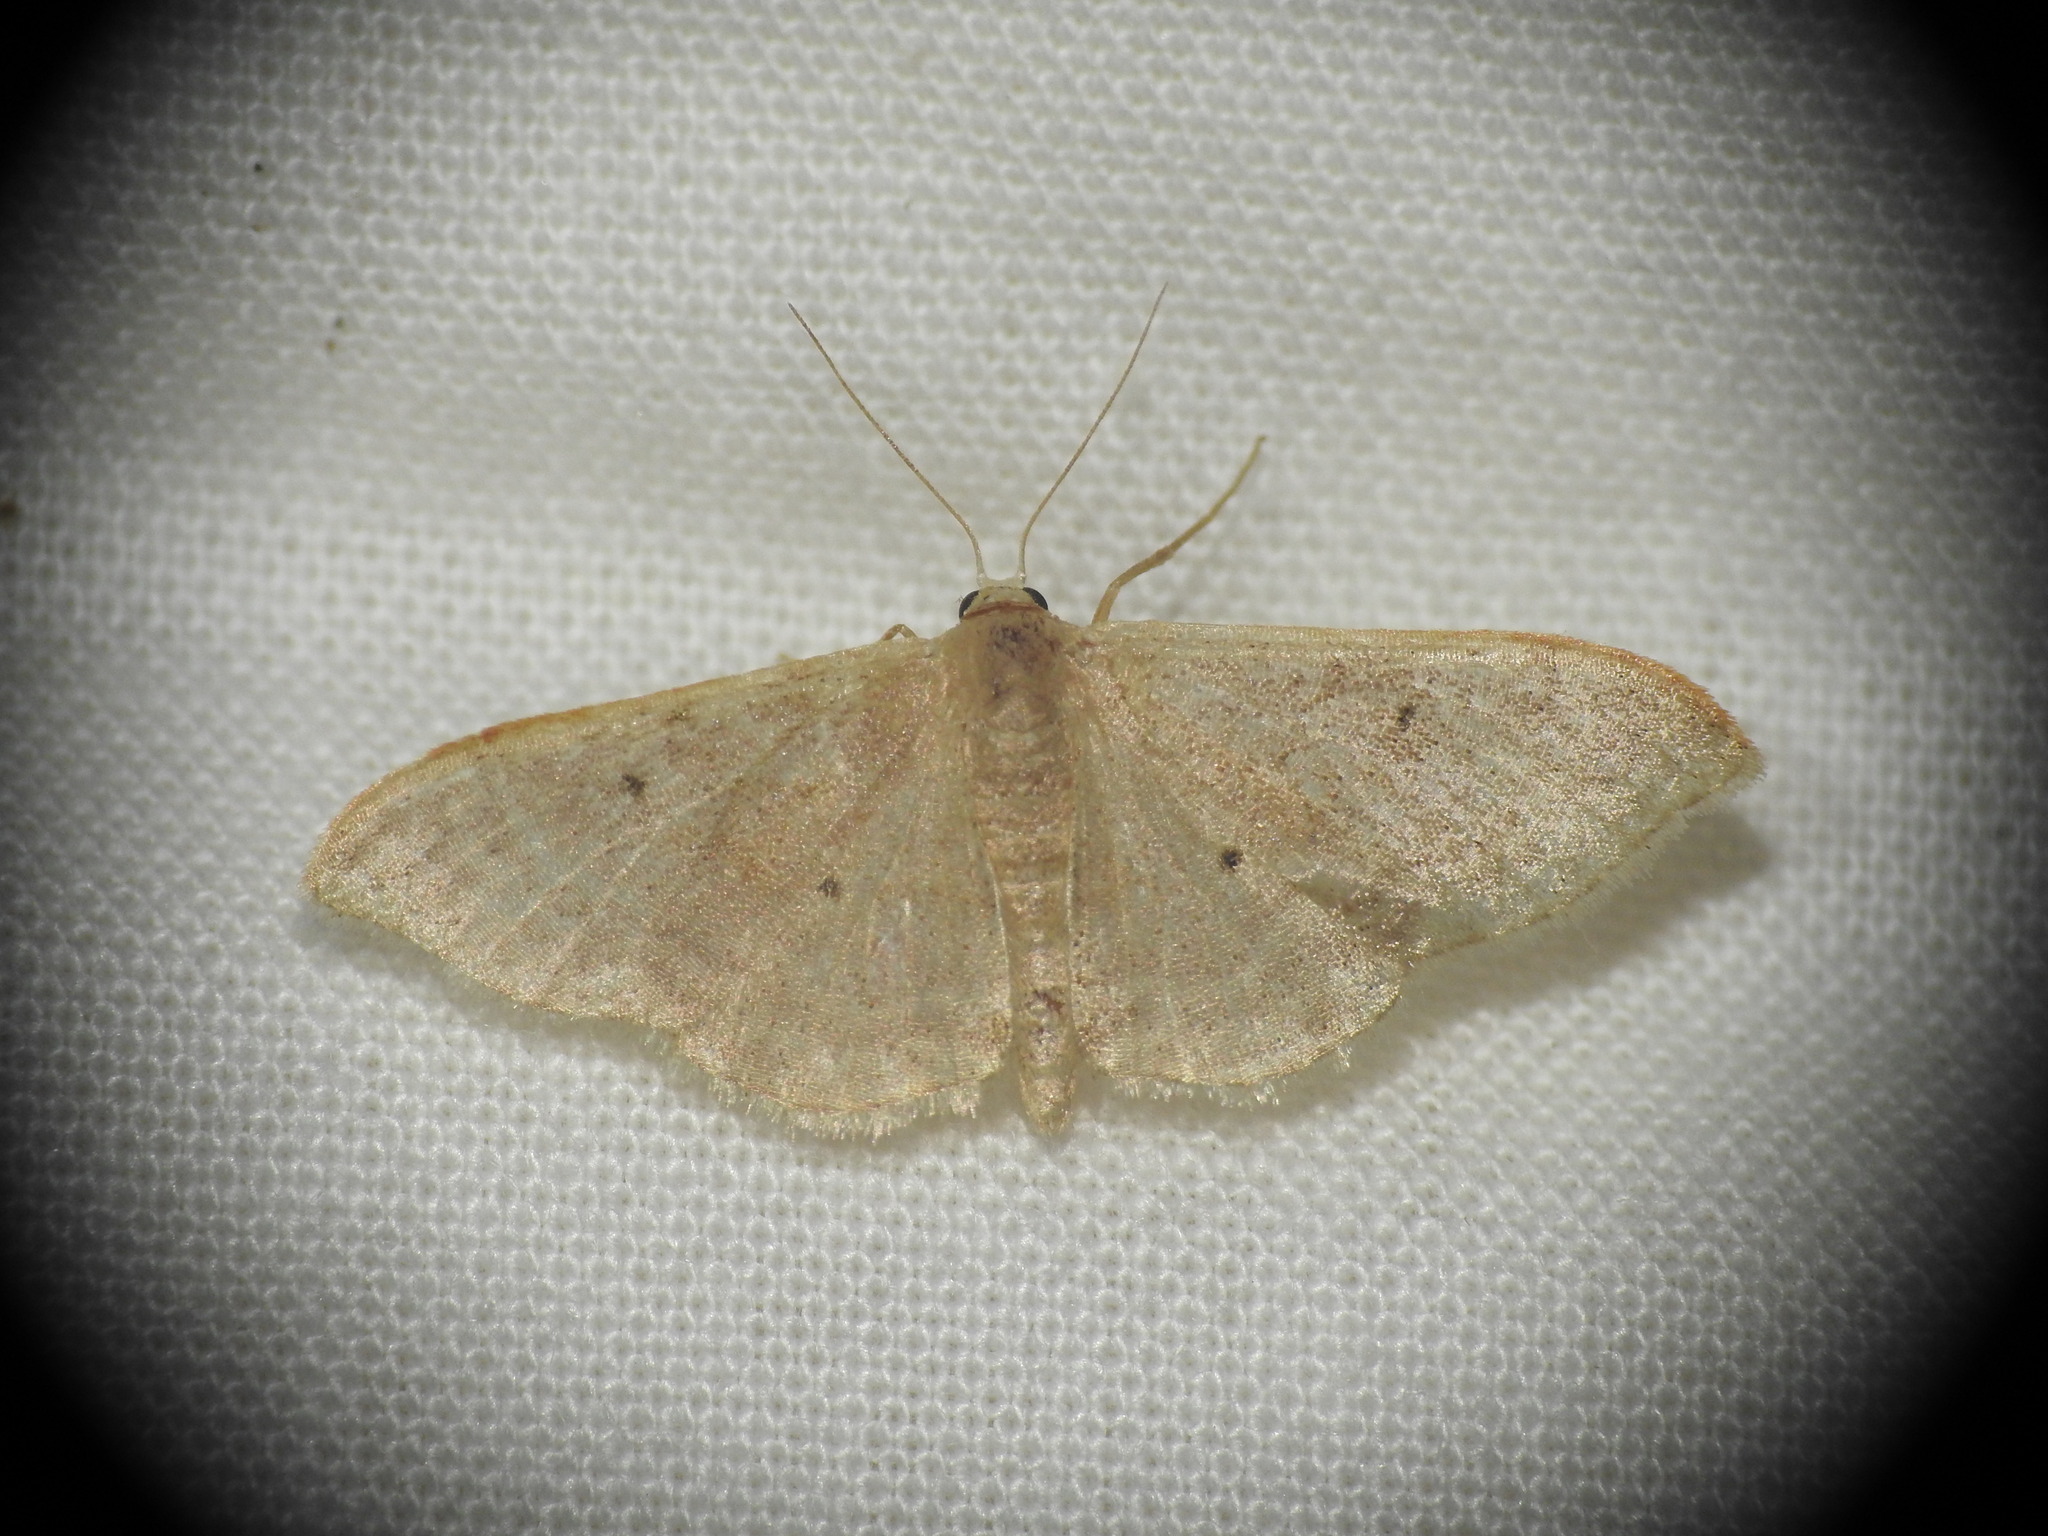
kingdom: Animalia
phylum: Arthropoda
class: Insecta
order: Lepidoptera
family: Geometridae
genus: Idaea
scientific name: Idaea degeneraria
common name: Portland ribbon wave
